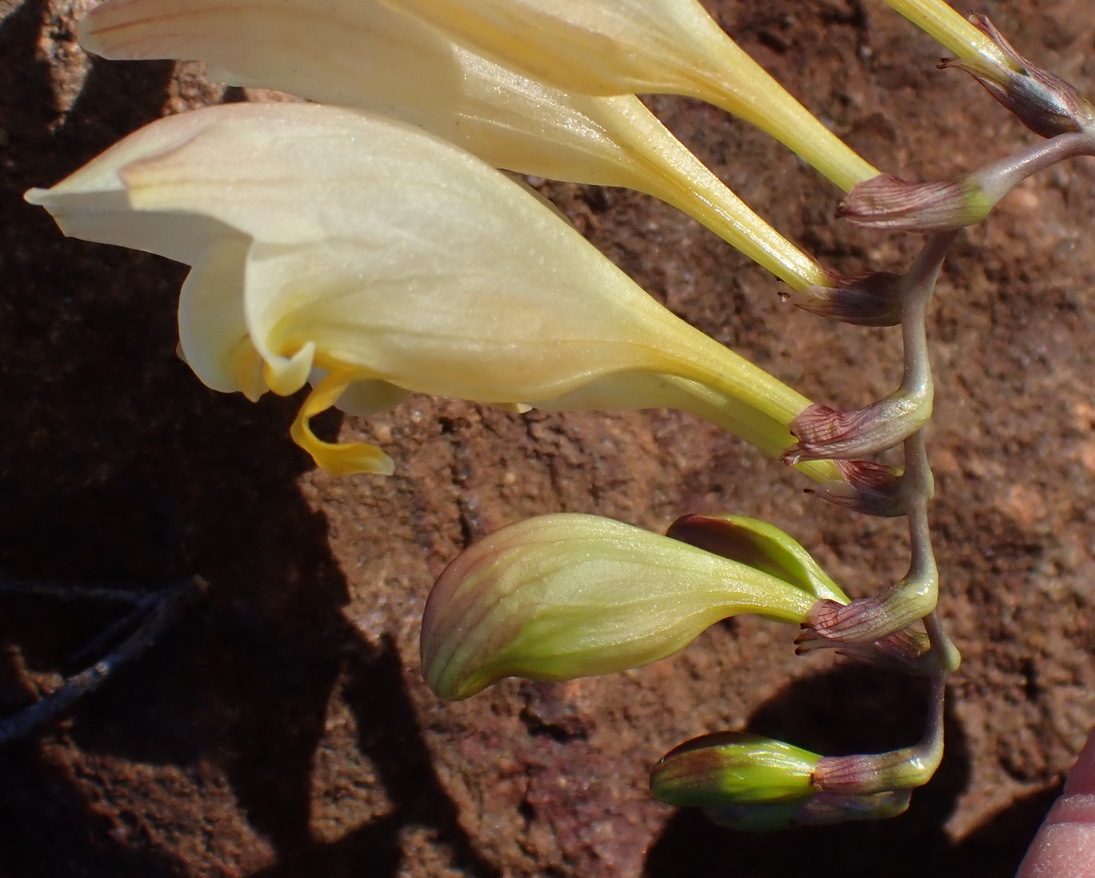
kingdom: Plantae
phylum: Tracheophyta
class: Liliopsida
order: Asparagales
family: Iridaceae
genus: Freesia
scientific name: Freesia corymbosa
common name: Common freesia
